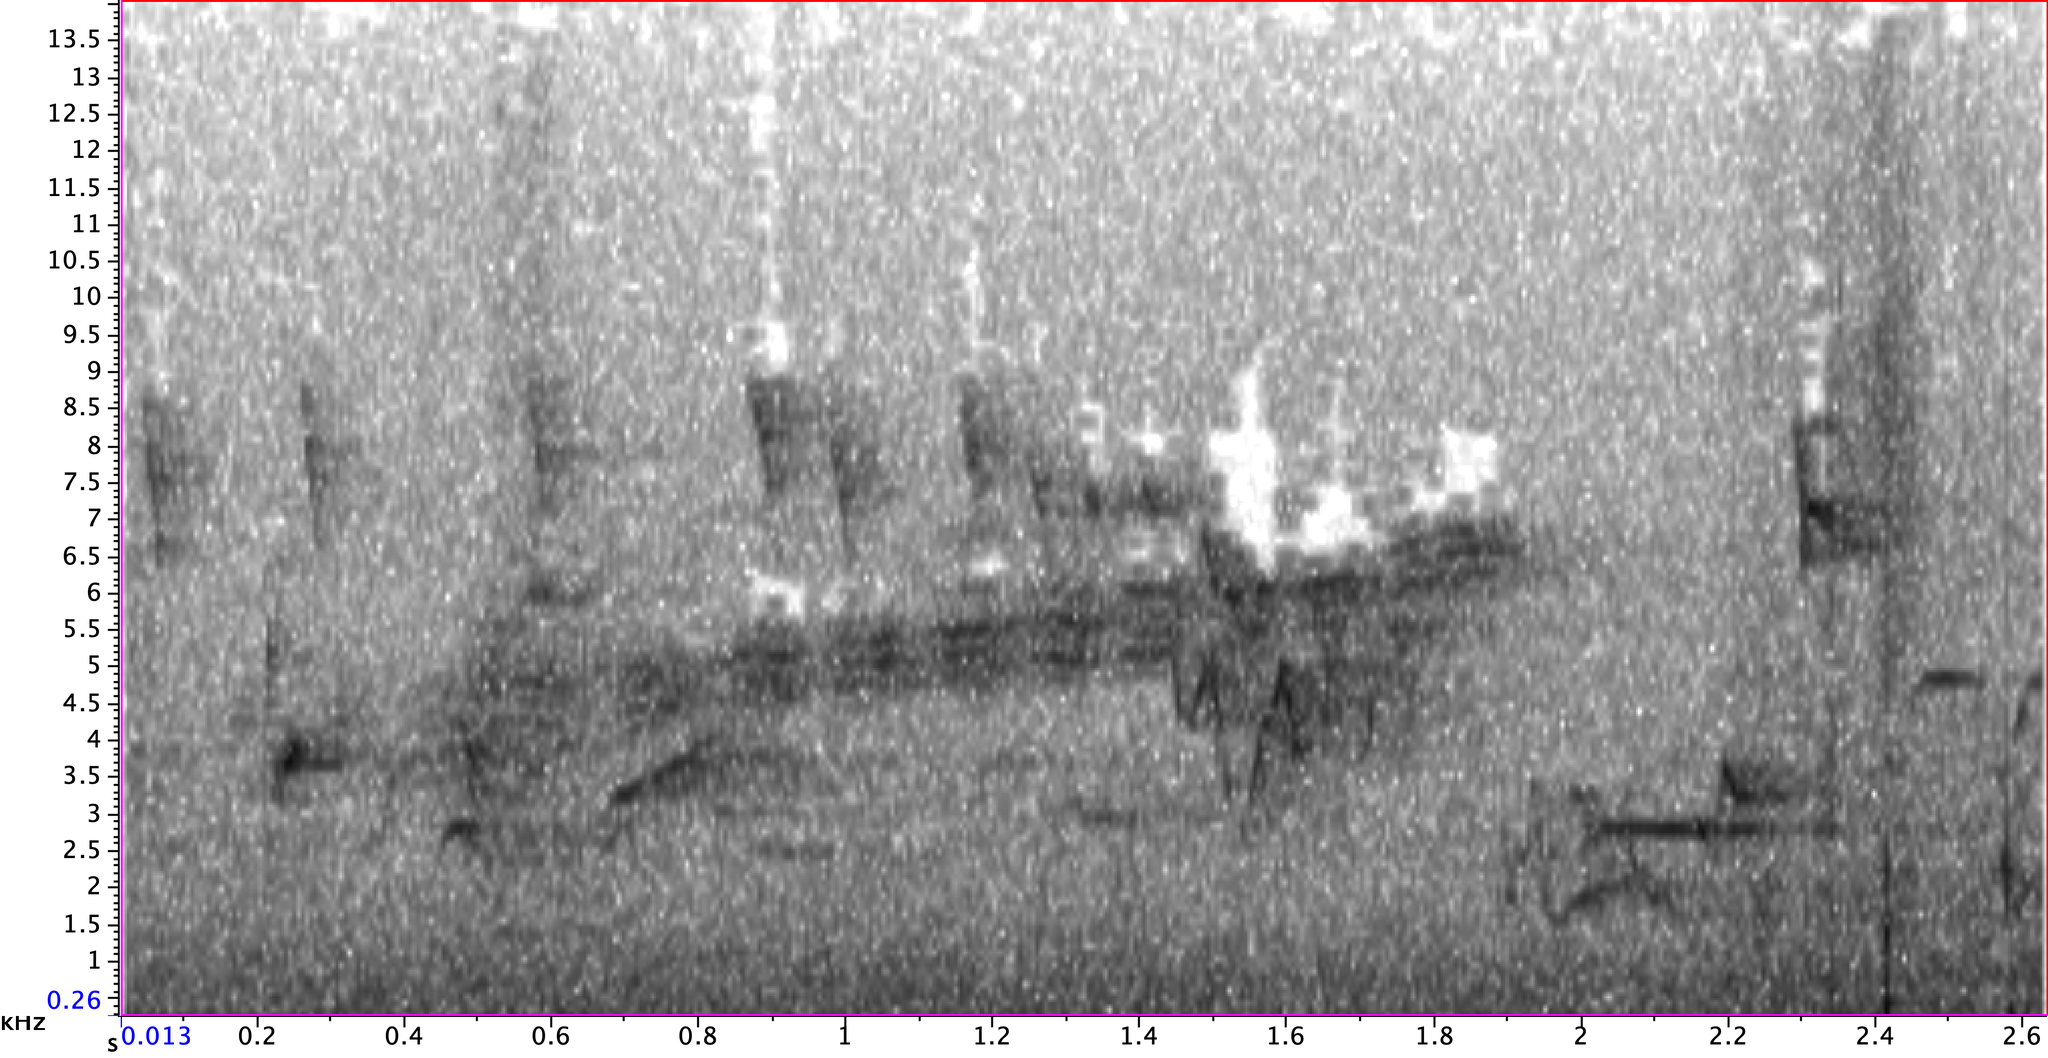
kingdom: Animalia
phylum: Chordata
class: Aves
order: Passeriformes
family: Parulidae
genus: Setophaga
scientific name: Setophaga discolor
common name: Prairie warbler
